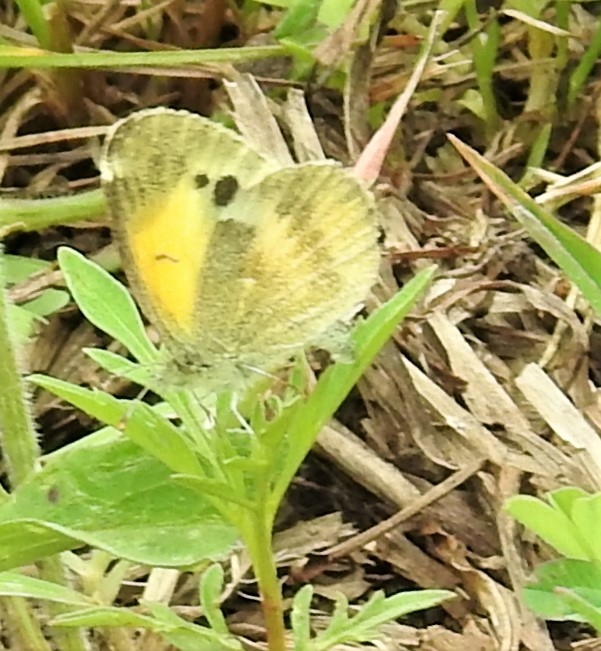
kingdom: Animalia
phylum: Arthropoda
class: Insecta
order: Lepidoptera
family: Pieridae
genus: Nathalis
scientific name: Nathalis iole
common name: Dainty sulphur
